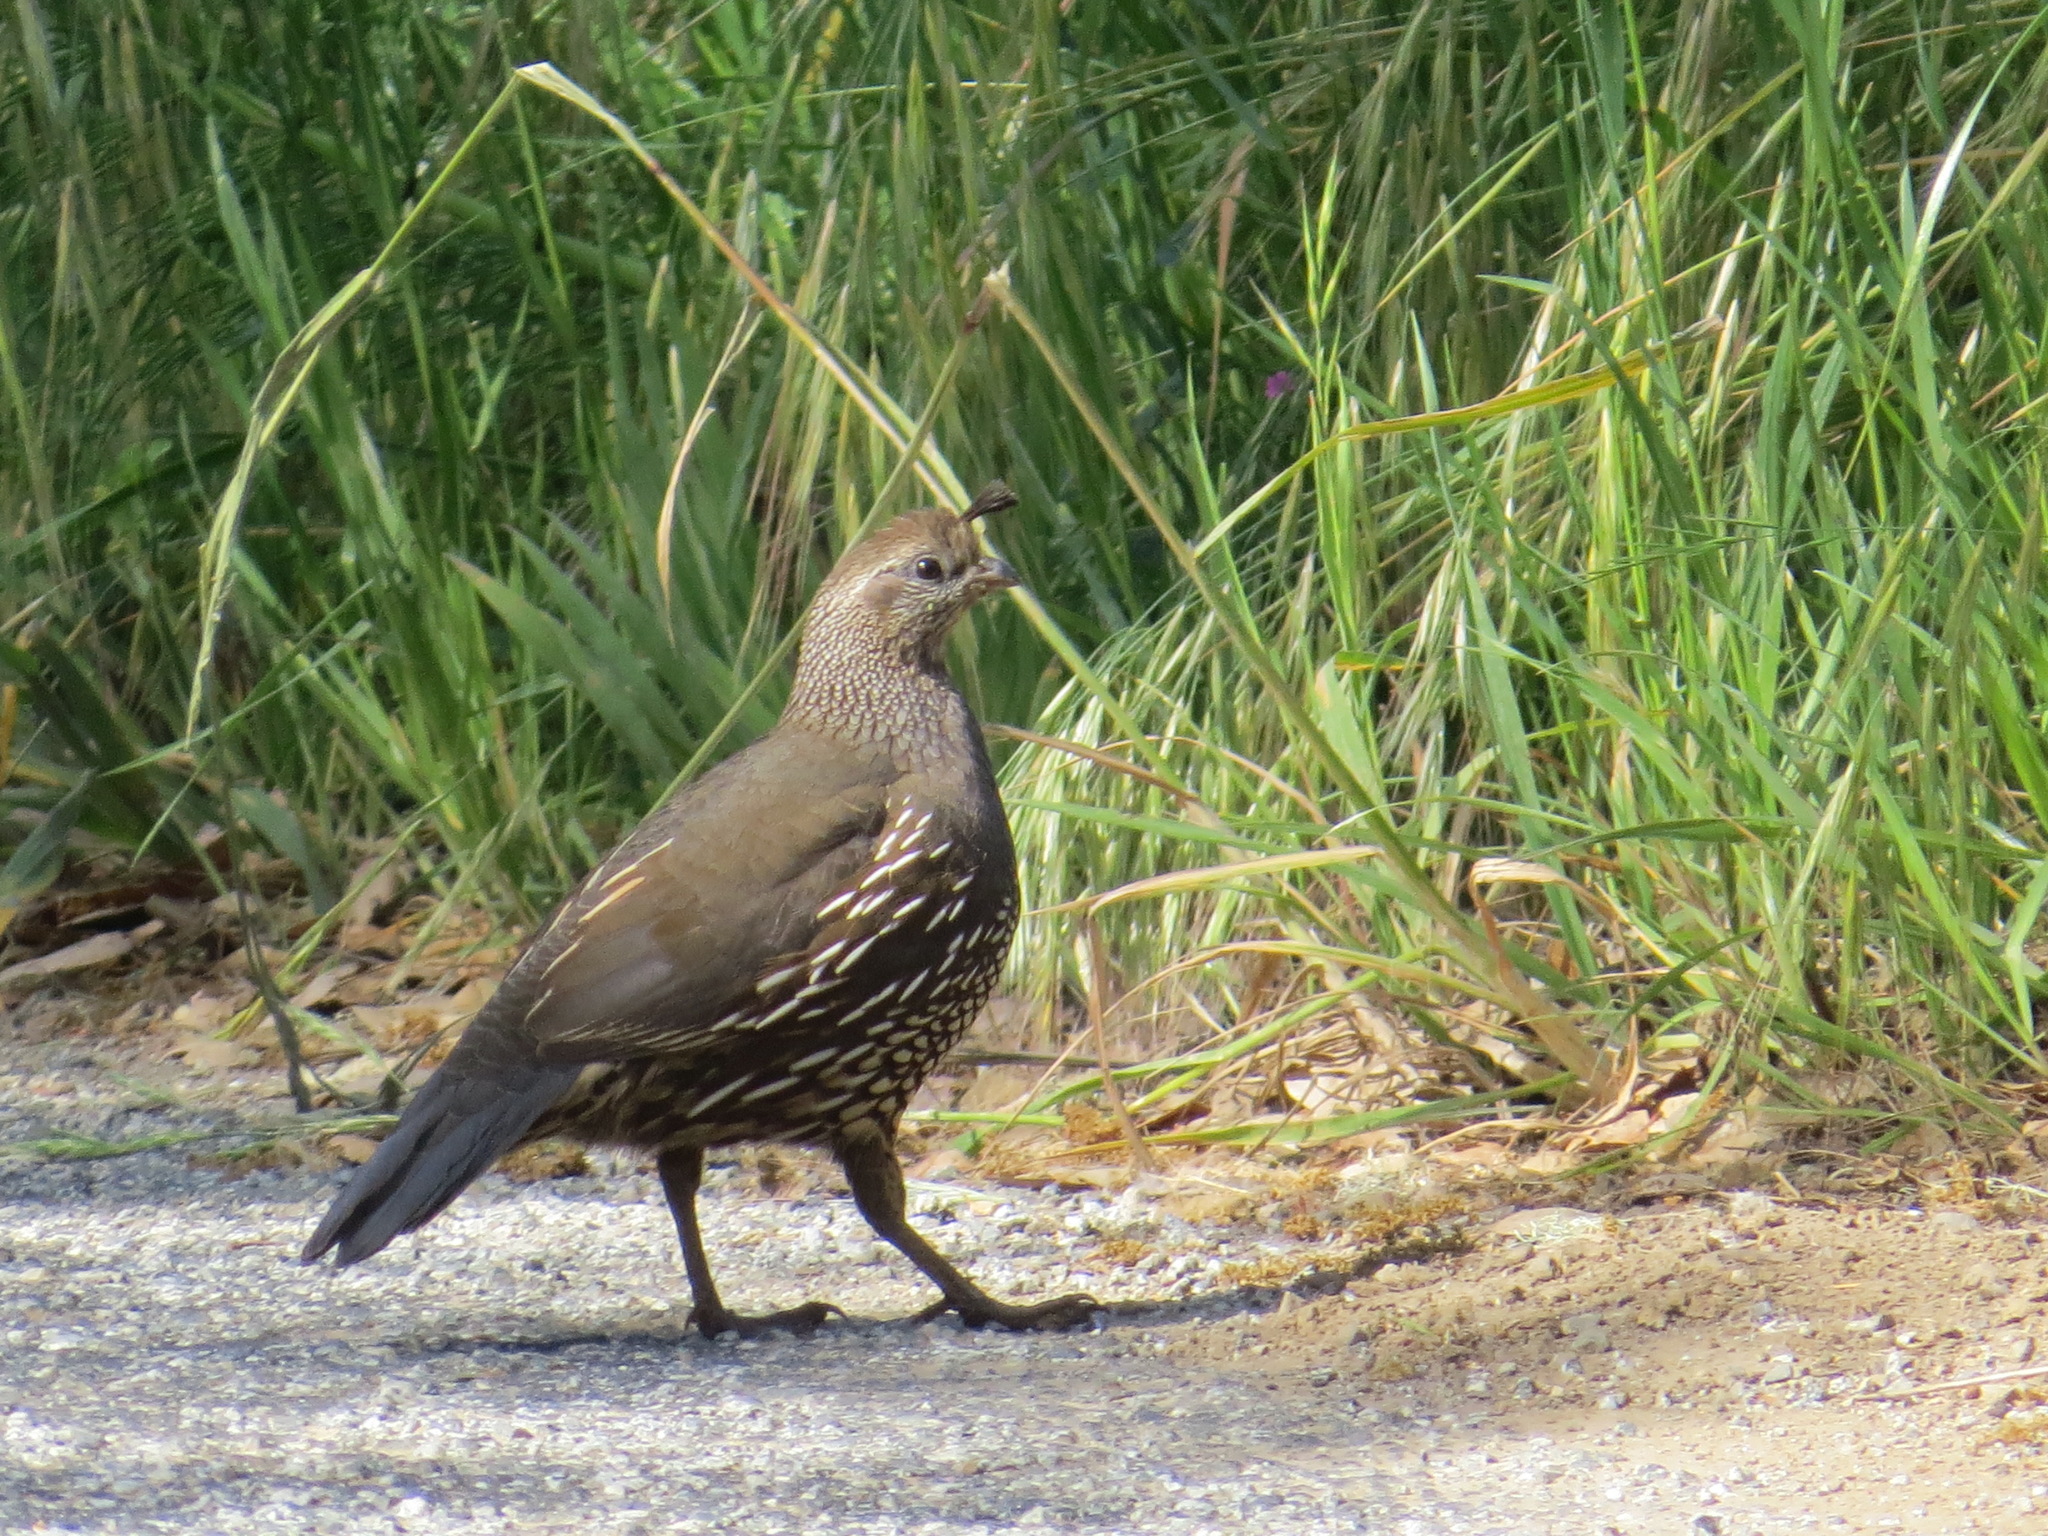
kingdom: Animalia
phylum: Chordata
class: Aves
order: Galliformes
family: Odontophoridae
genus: Callipepla
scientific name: Callipepla californica
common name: California quail
